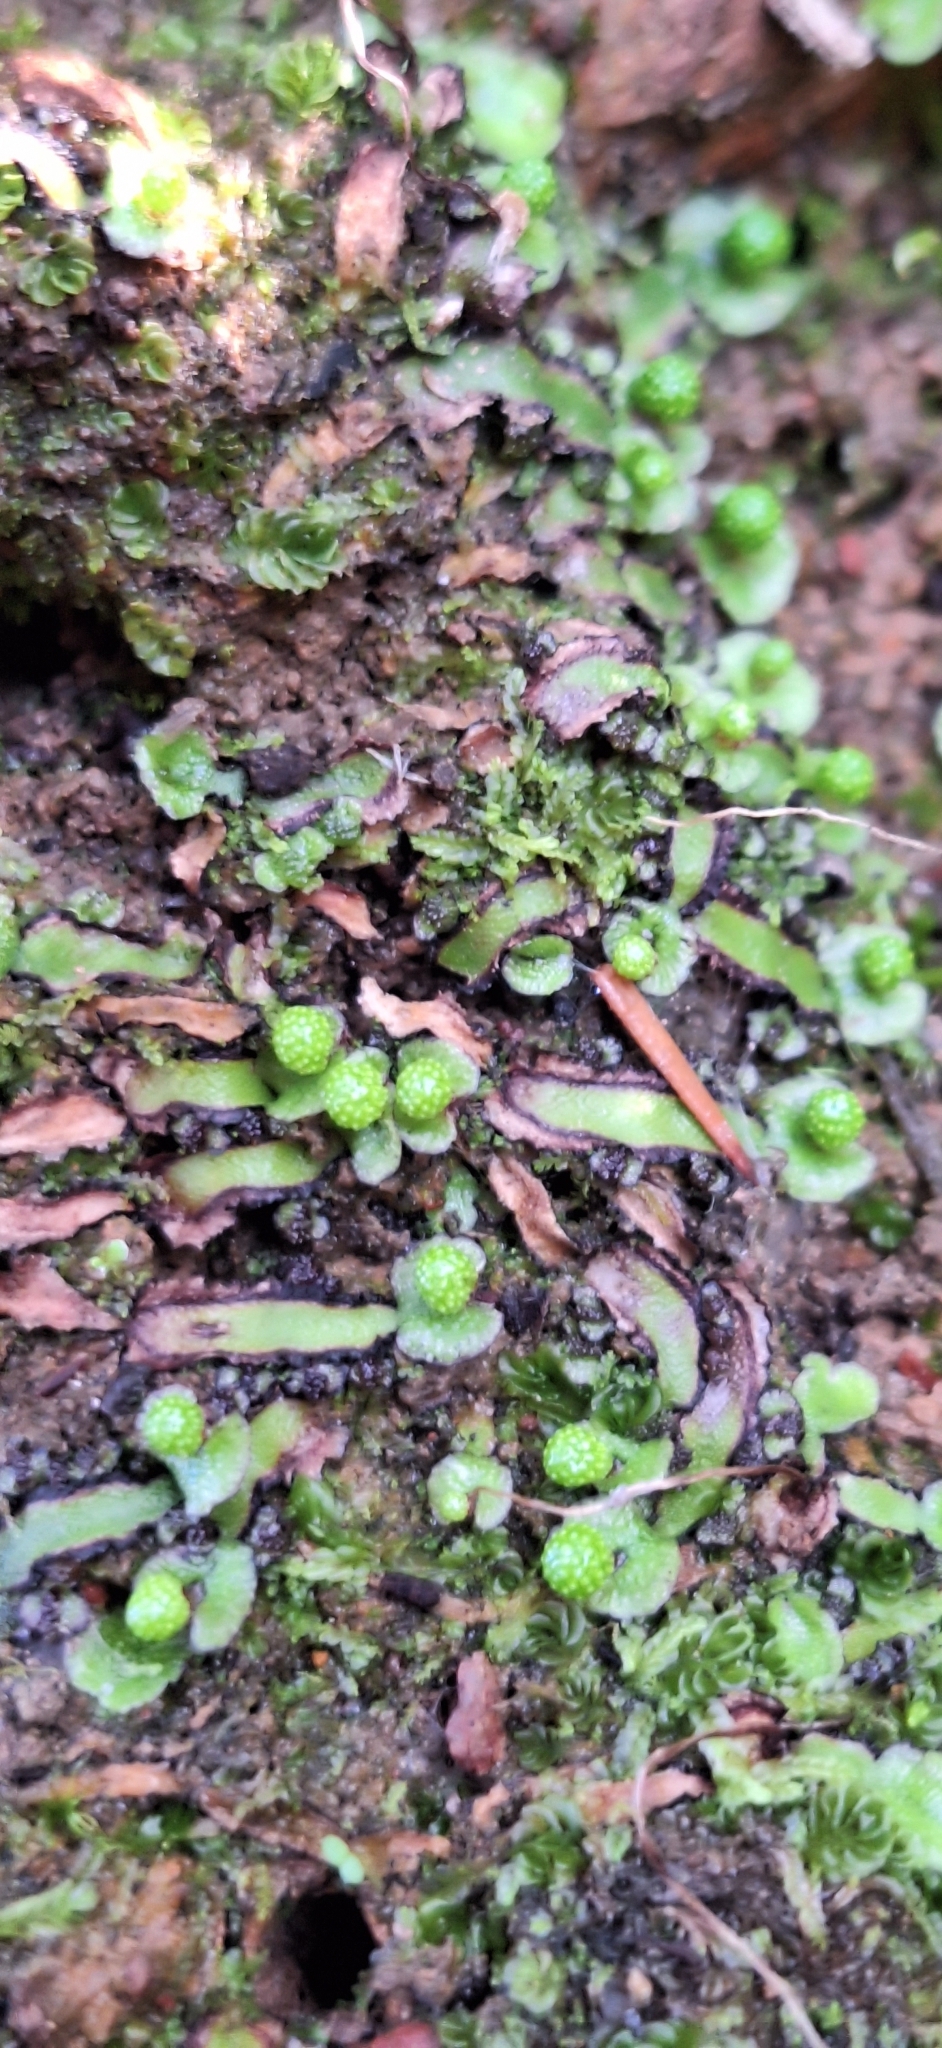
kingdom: Plantae
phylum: Marchantiophyta
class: Marchantiopsida
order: Marchantiales
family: Aytoniaceae
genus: Asterella
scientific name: Asterella drummondii
